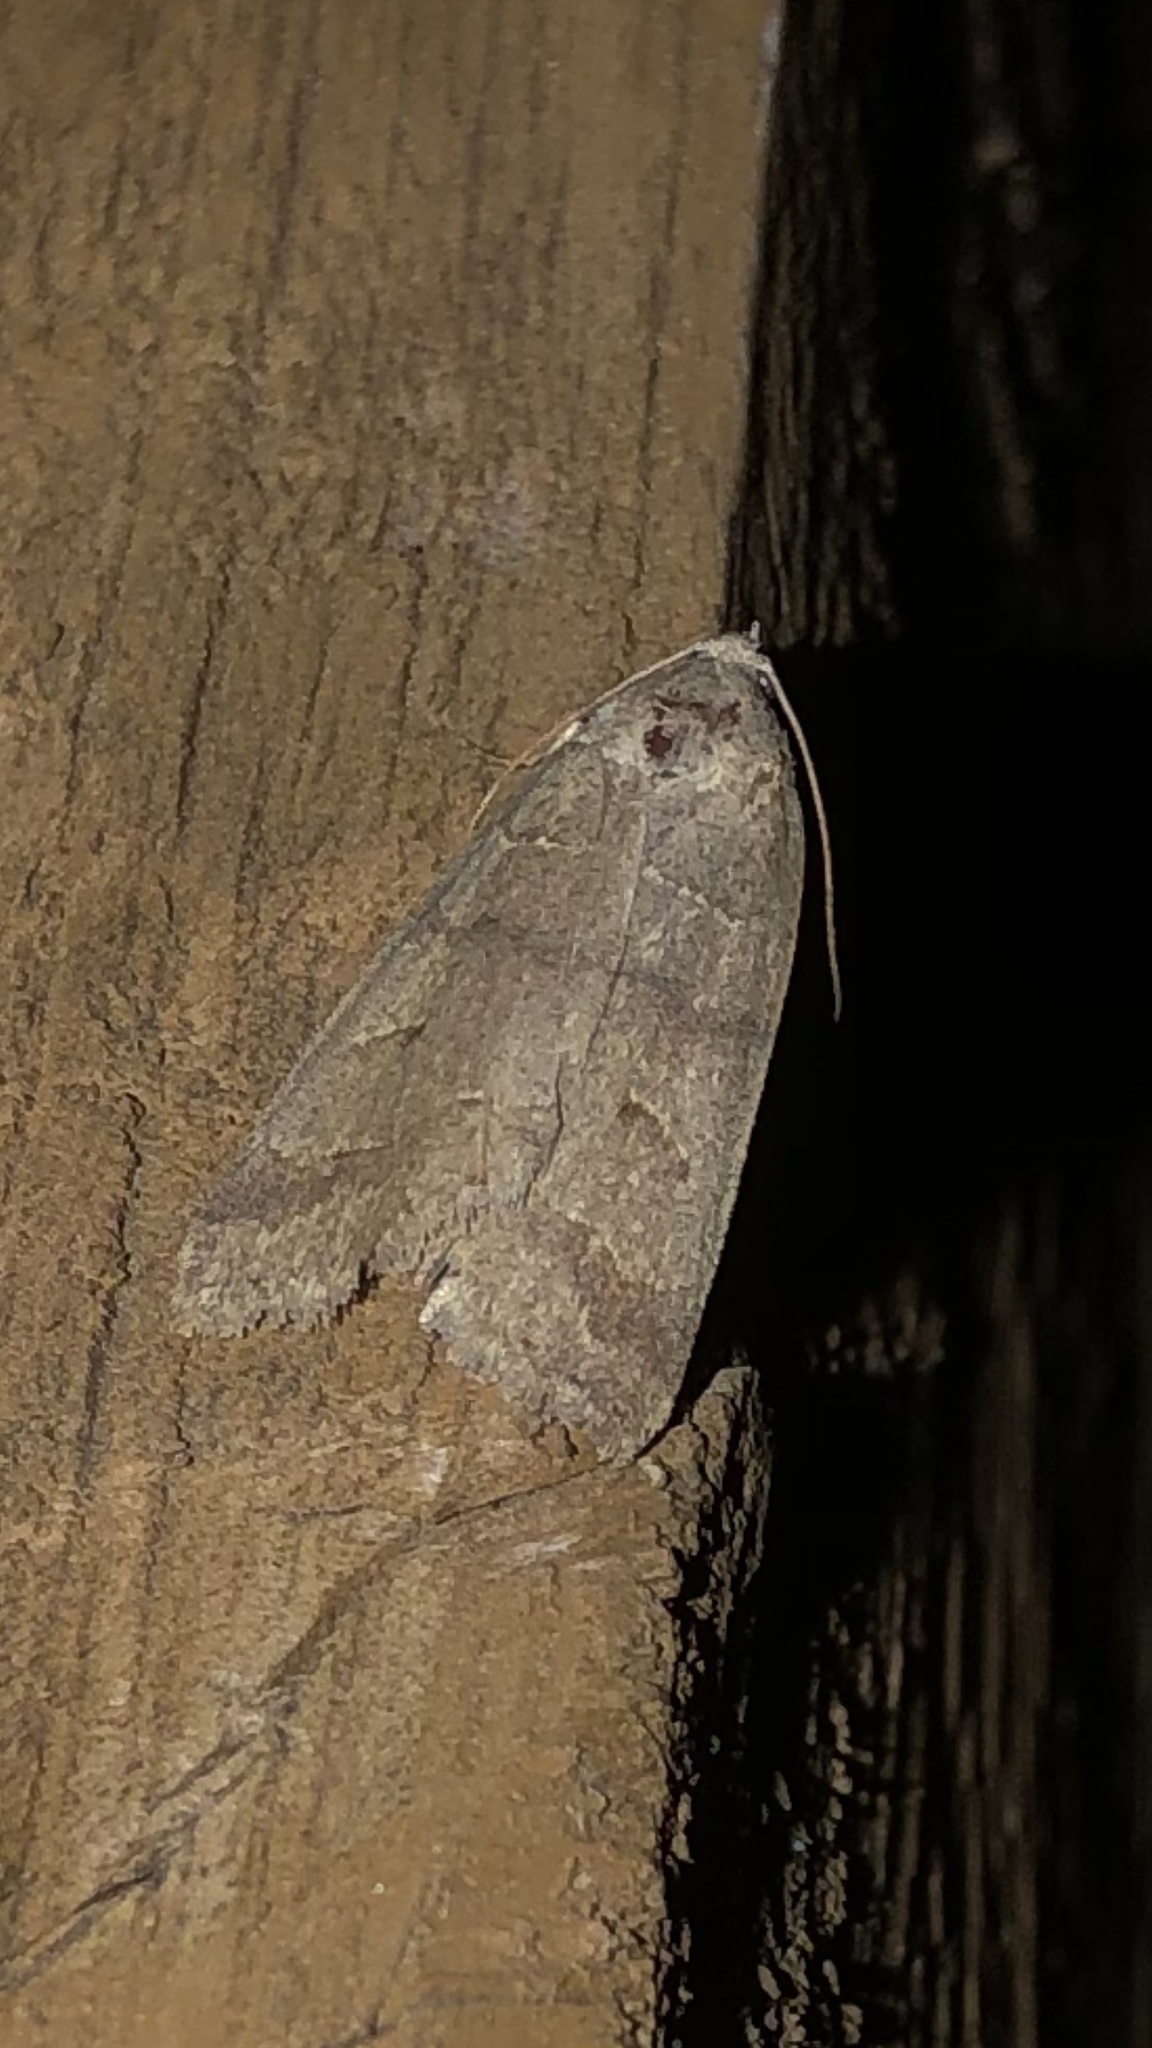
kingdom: Animalia
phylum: Arthropoda
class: Insecta
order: Lepidoptera
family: Erebidae
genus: Phoberia
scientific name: Phoberia atomaris
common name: Common oak moth
